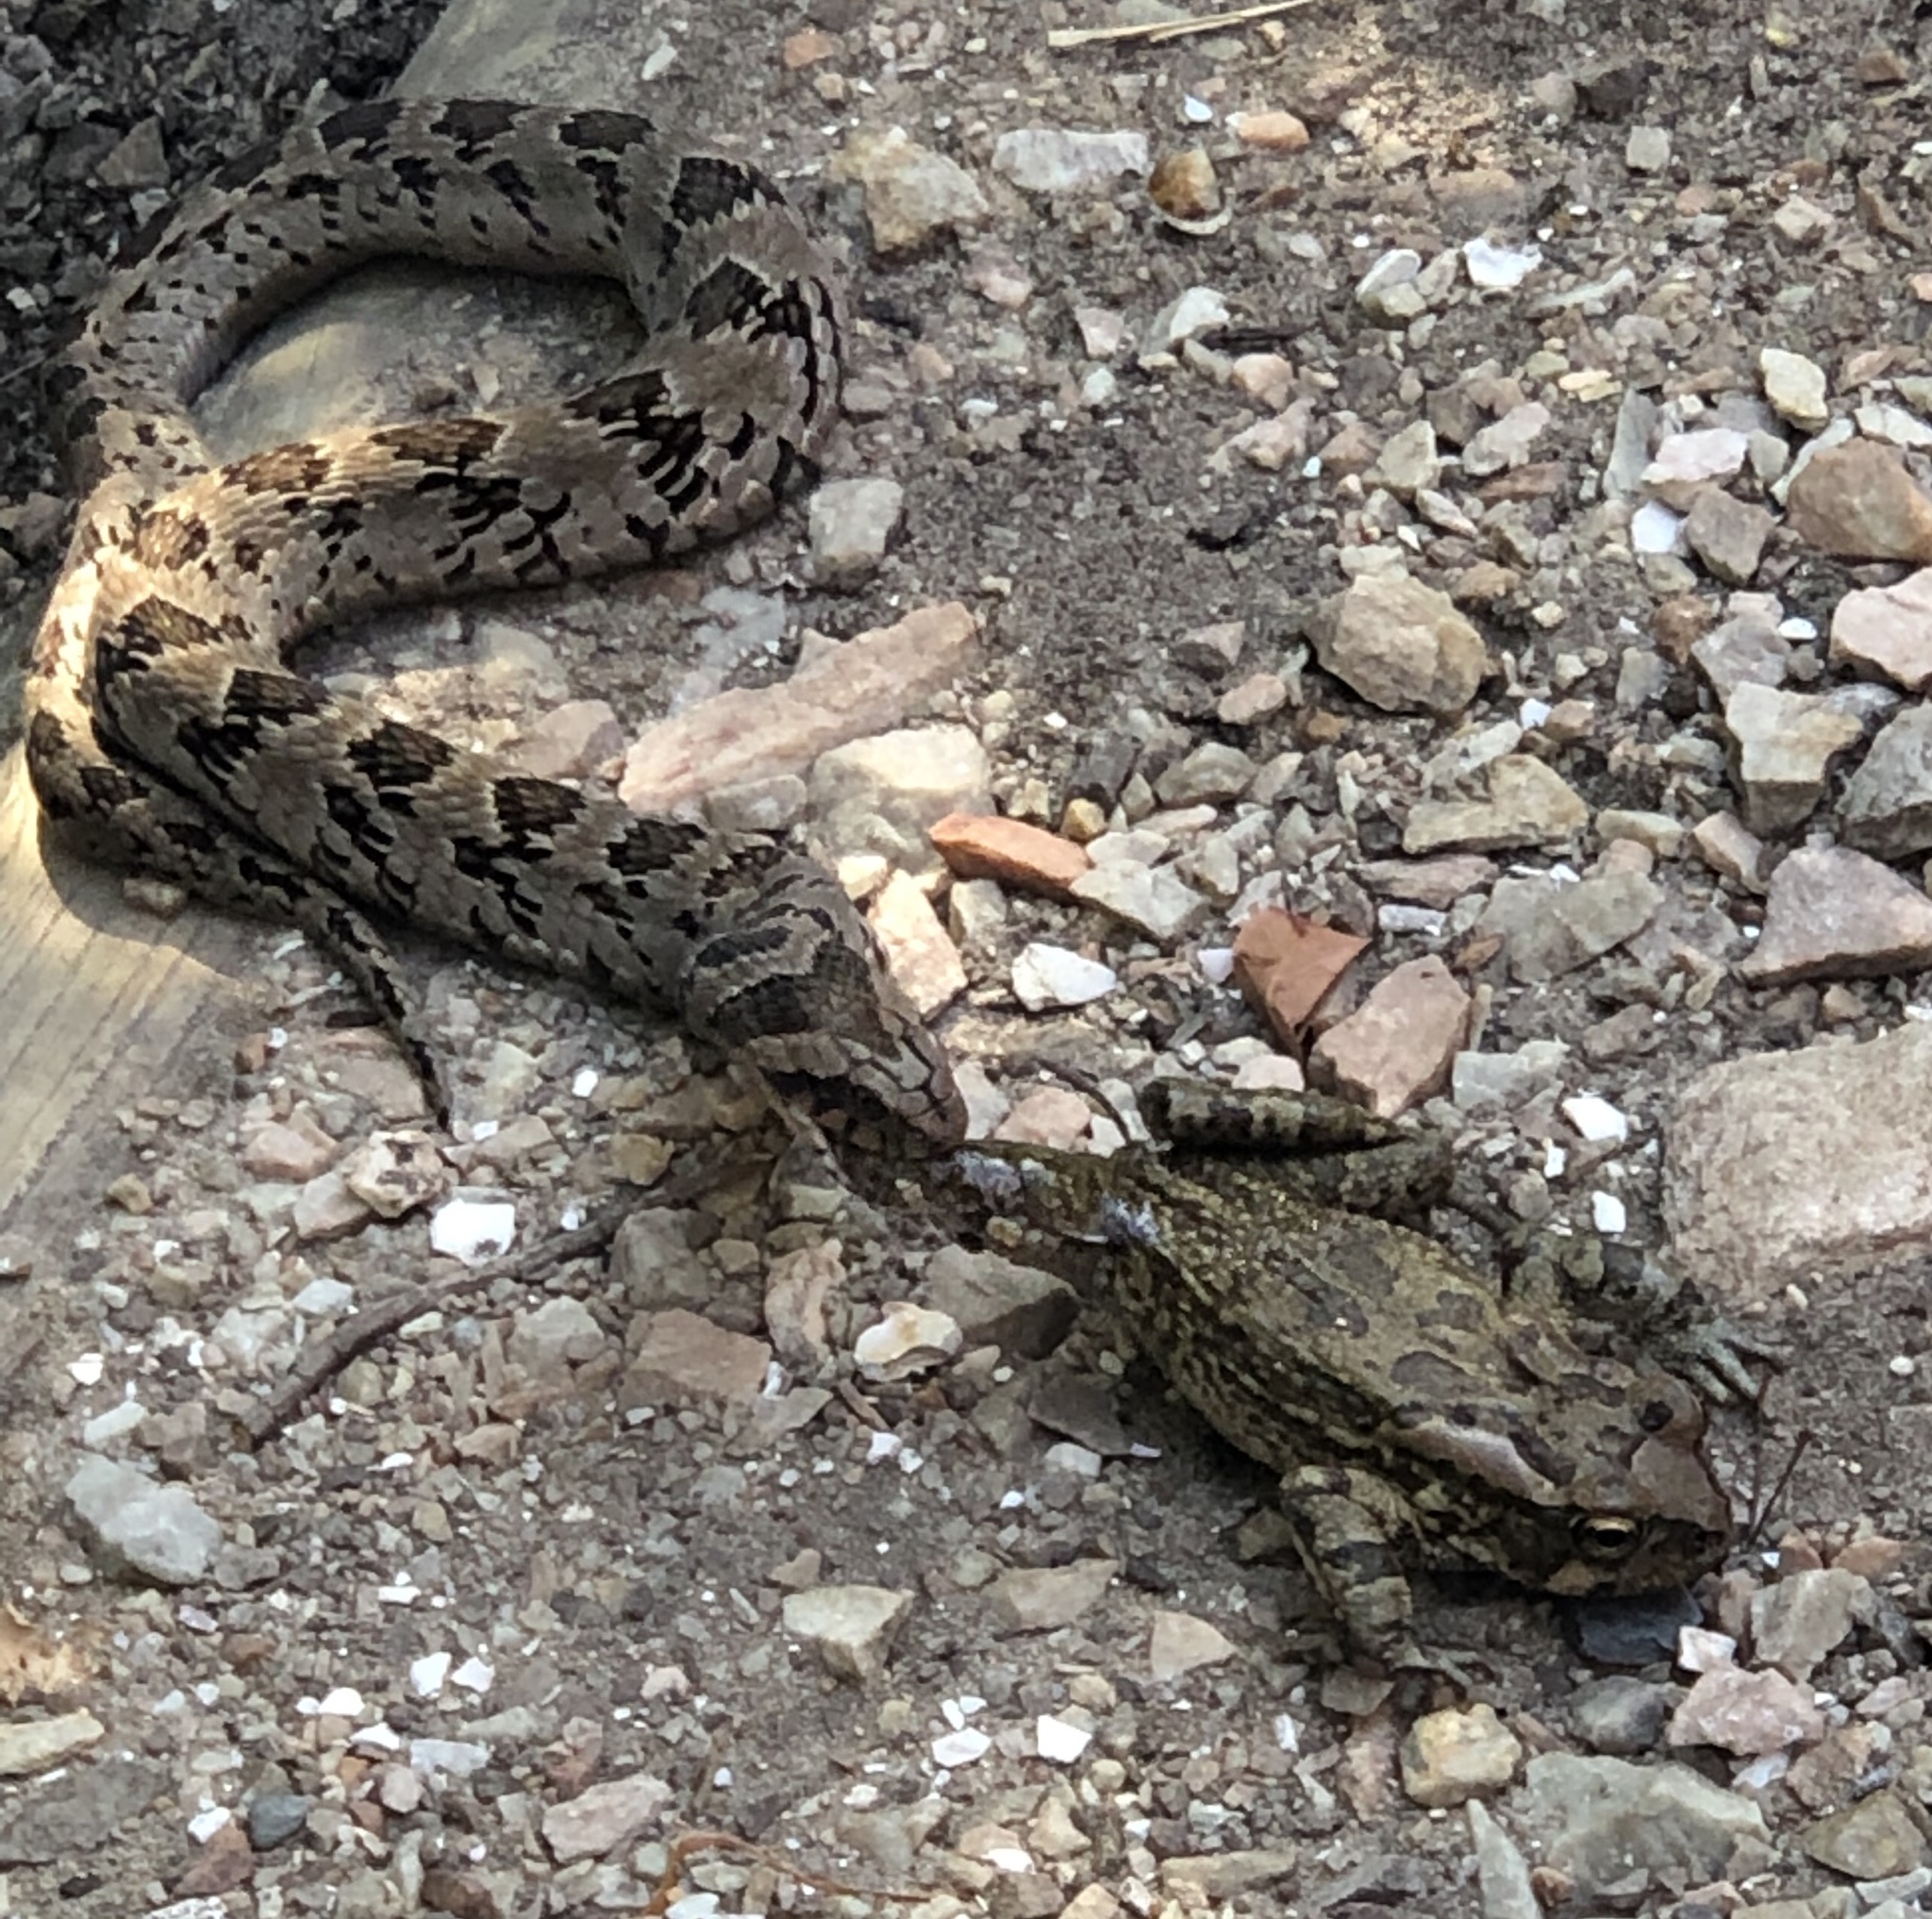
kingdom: Animalia
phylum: Chordata
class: Amphibia
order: Anura
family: Bufonidae
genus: Sclerophrys
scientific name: Sclerophrys capensis
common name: Ranger’s toad
